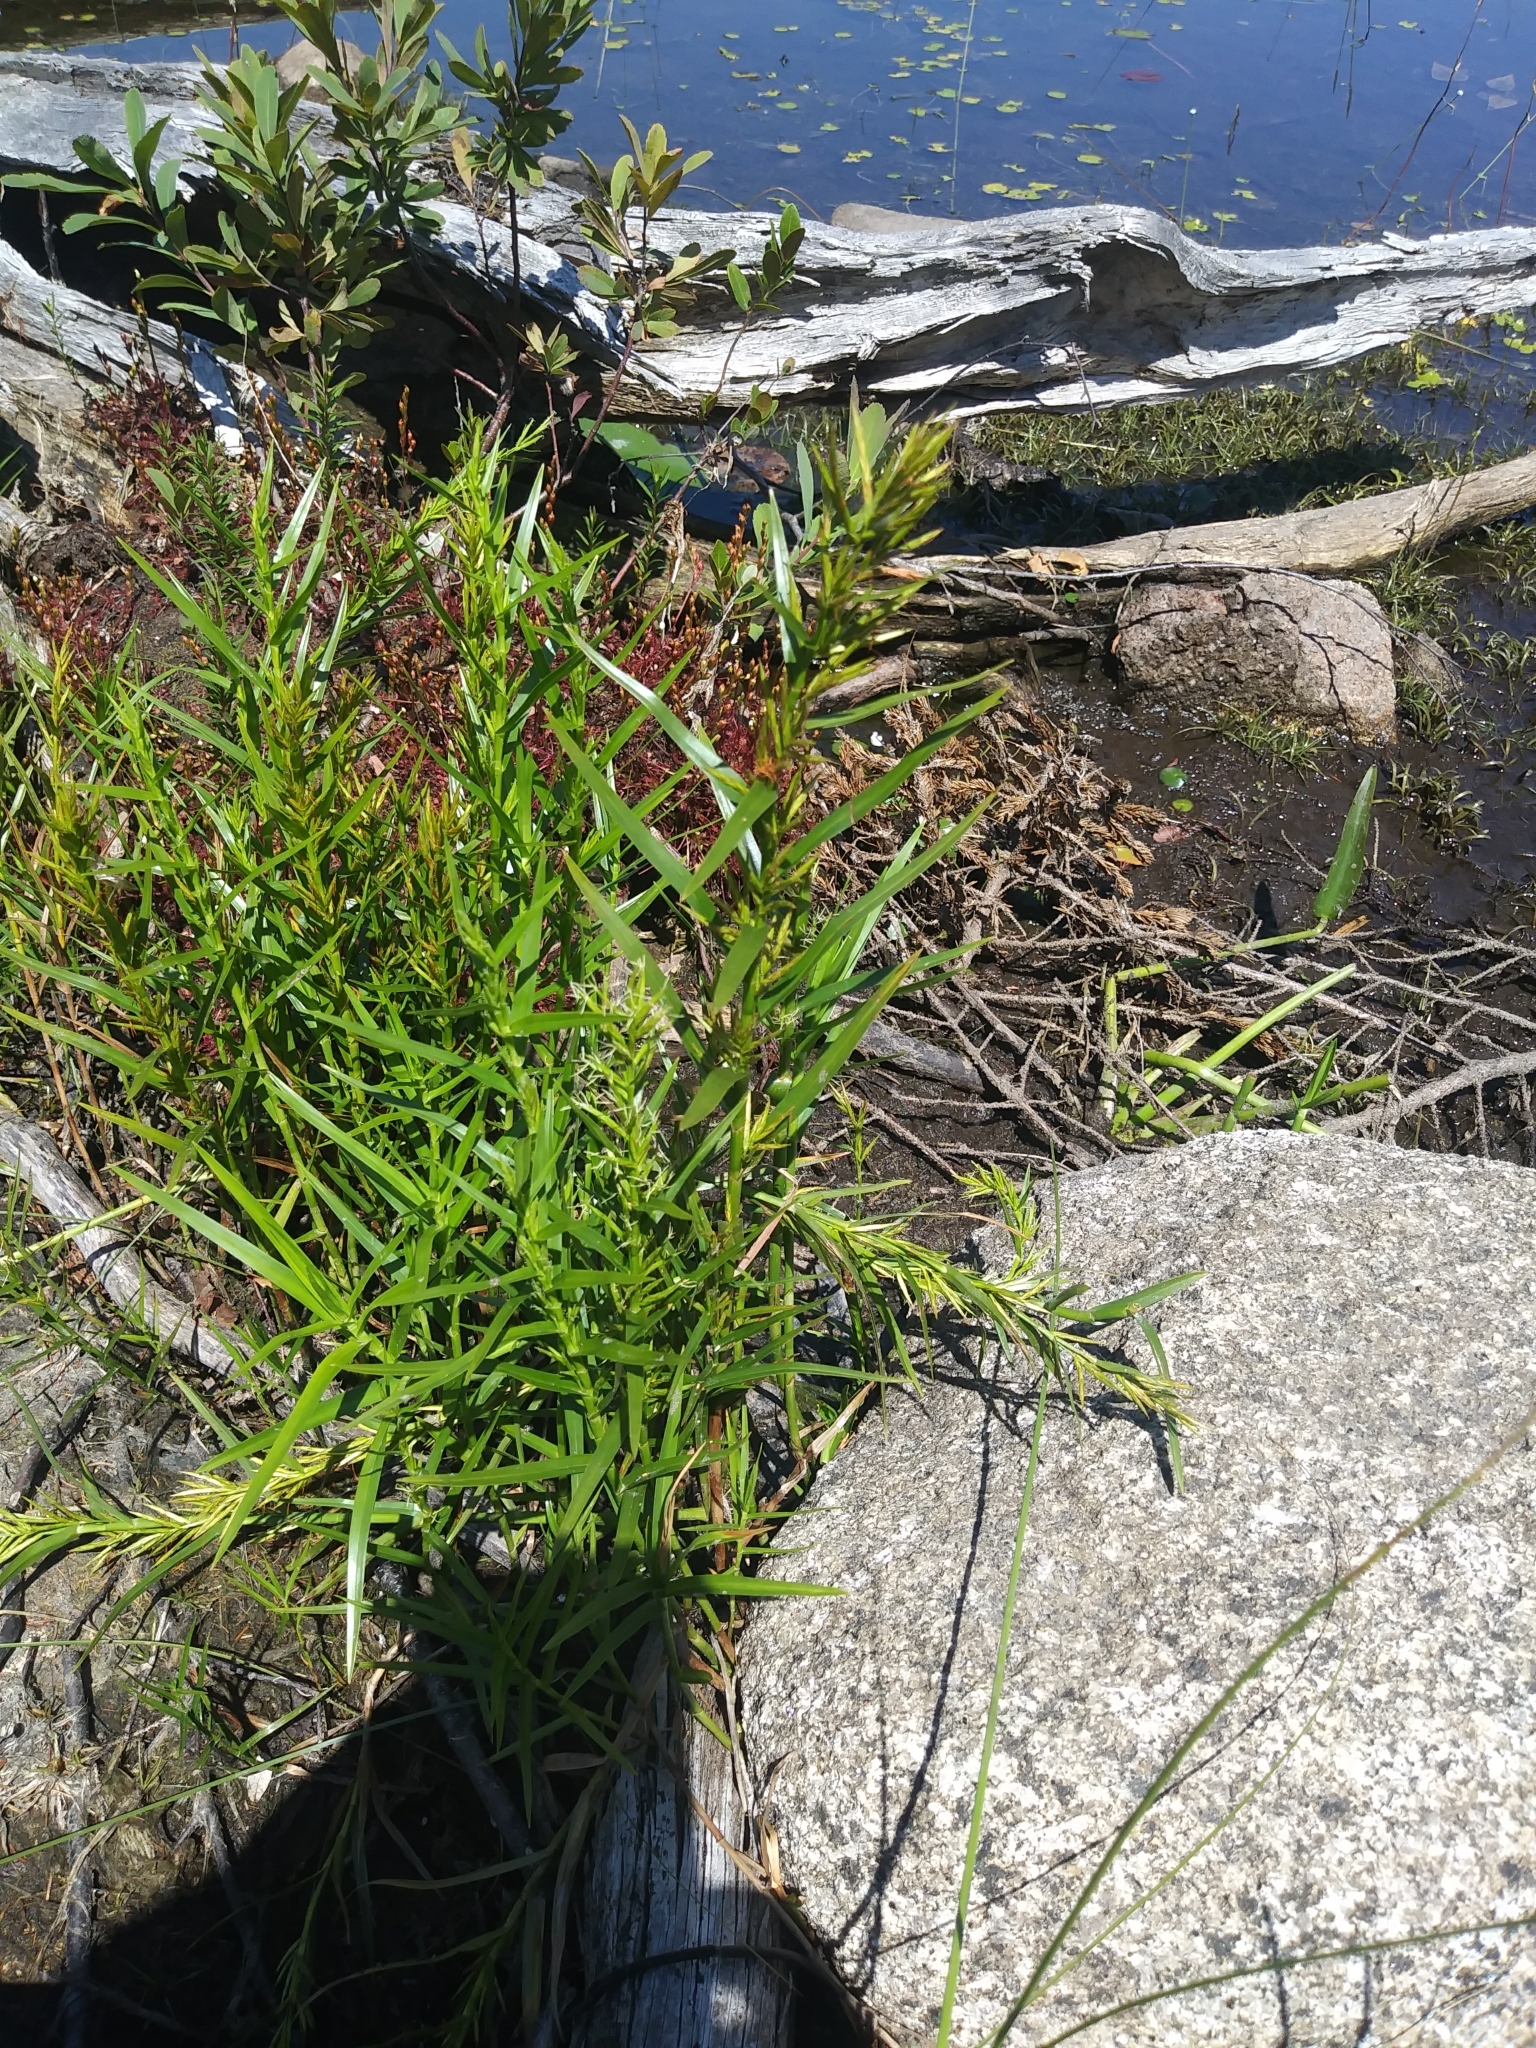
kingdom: Plantae
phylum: Tracheophyta
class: Liliopsida
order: Poales
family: Cyperaceae
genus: Dulichium
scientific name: Dulichium arundinaceum
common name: Three-way sedge
